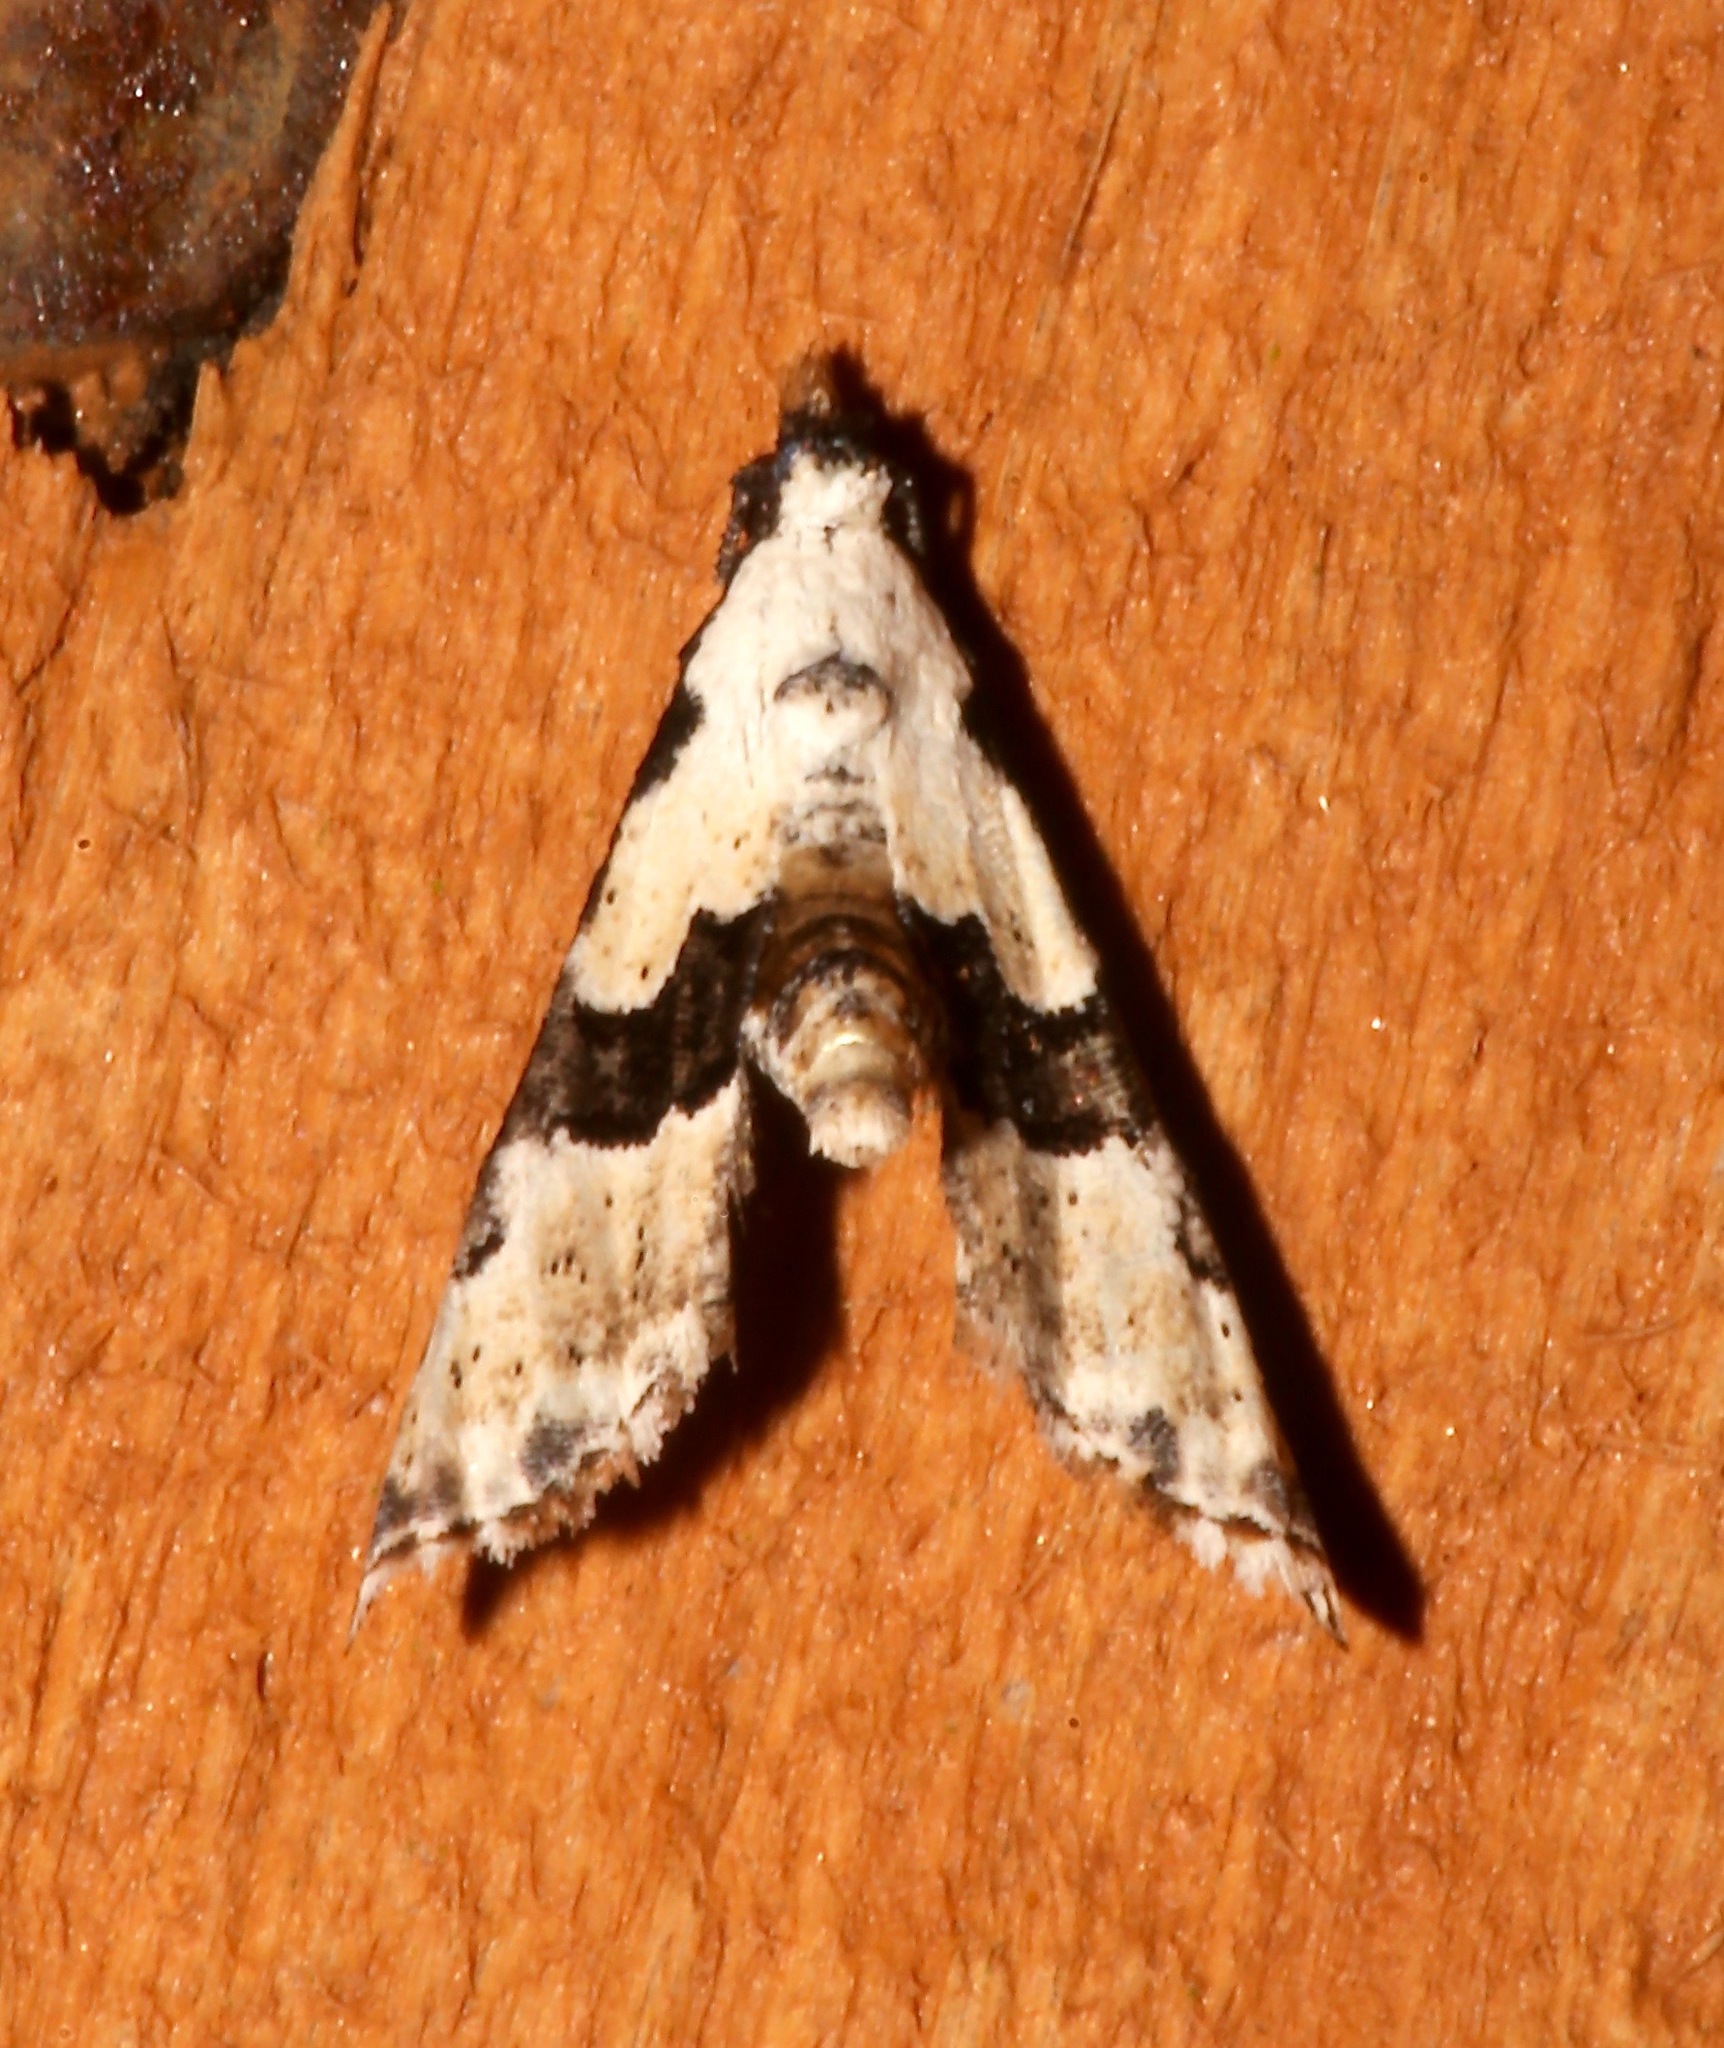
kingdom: Animalia
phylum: Arthropoda
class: Insecta
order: Lepidoptera
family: Noctuidae
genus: Nigetia
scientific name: Nigetia formosalis
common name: Thin-winged owlet
